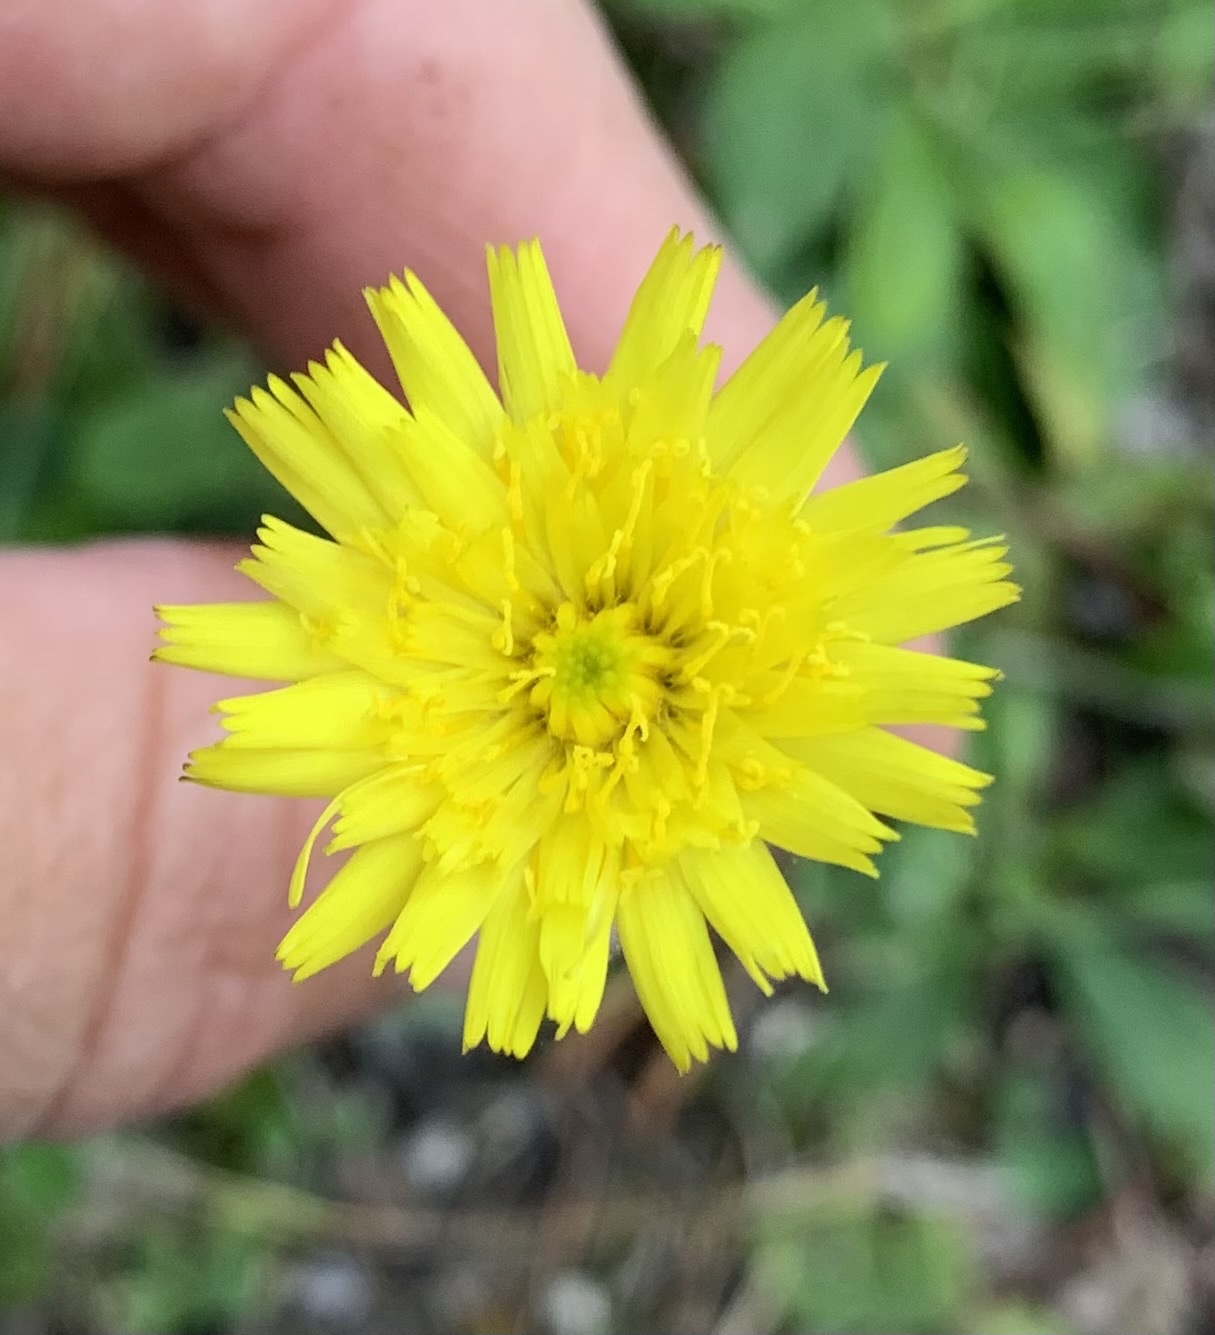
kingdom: Plantae
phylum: Tracheophyta
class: Magnoliopsida
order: Asterales
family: Asteraceae
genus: Pilosella
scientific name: Pilosella officinarum
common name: Mouse-ear hawkweed
